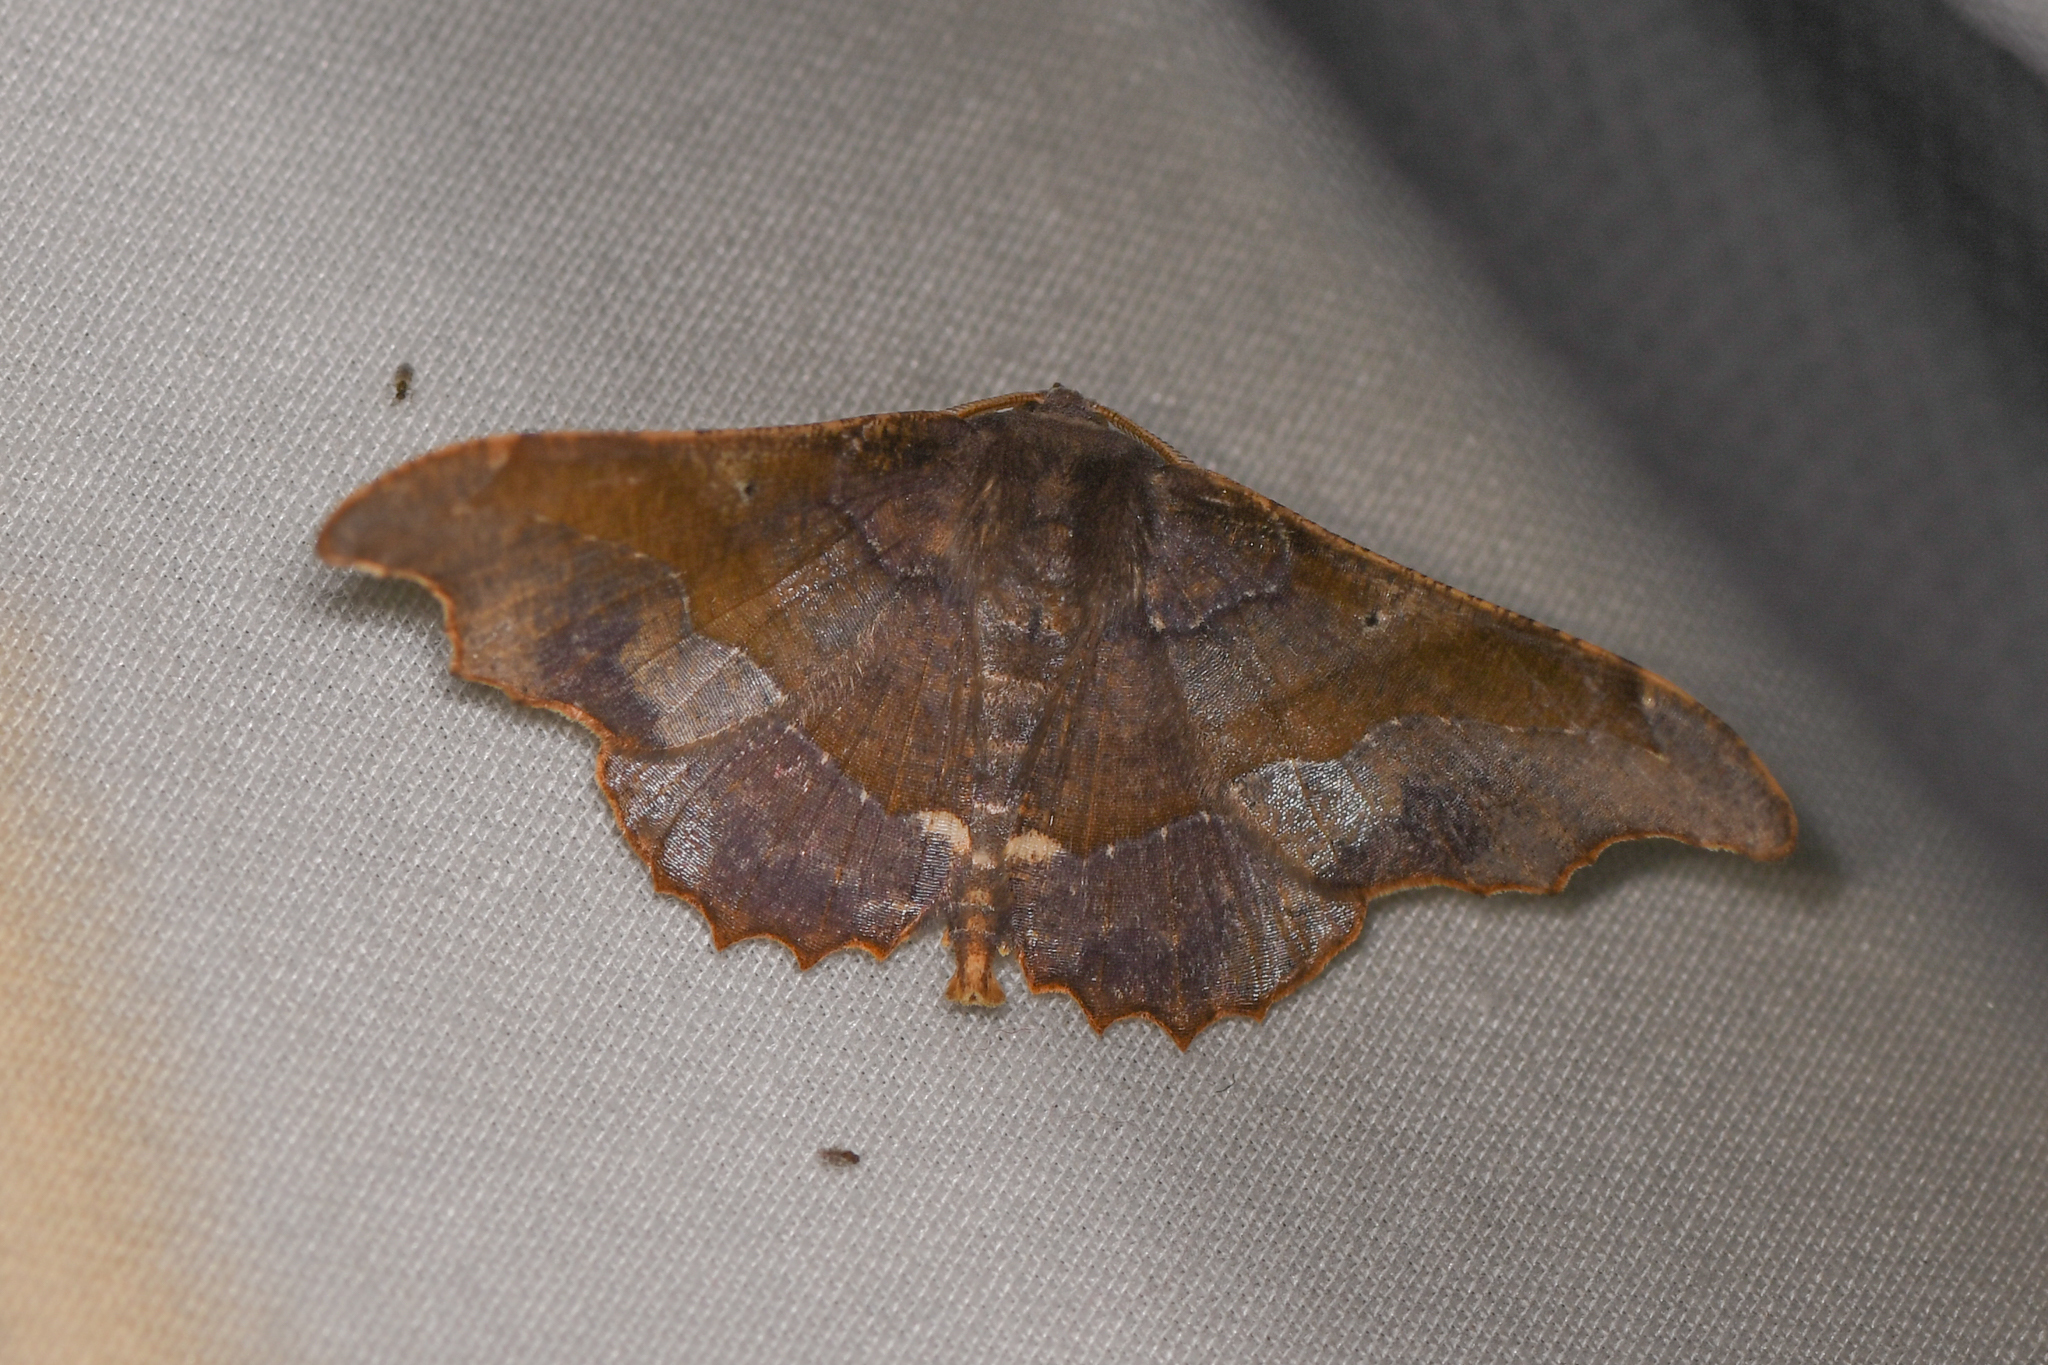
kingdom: Animalia
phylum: Arthropoda
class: Insecta
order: Lepidoptera
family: Geometridae
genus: Patalene
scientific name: Patalene aenetusaria
